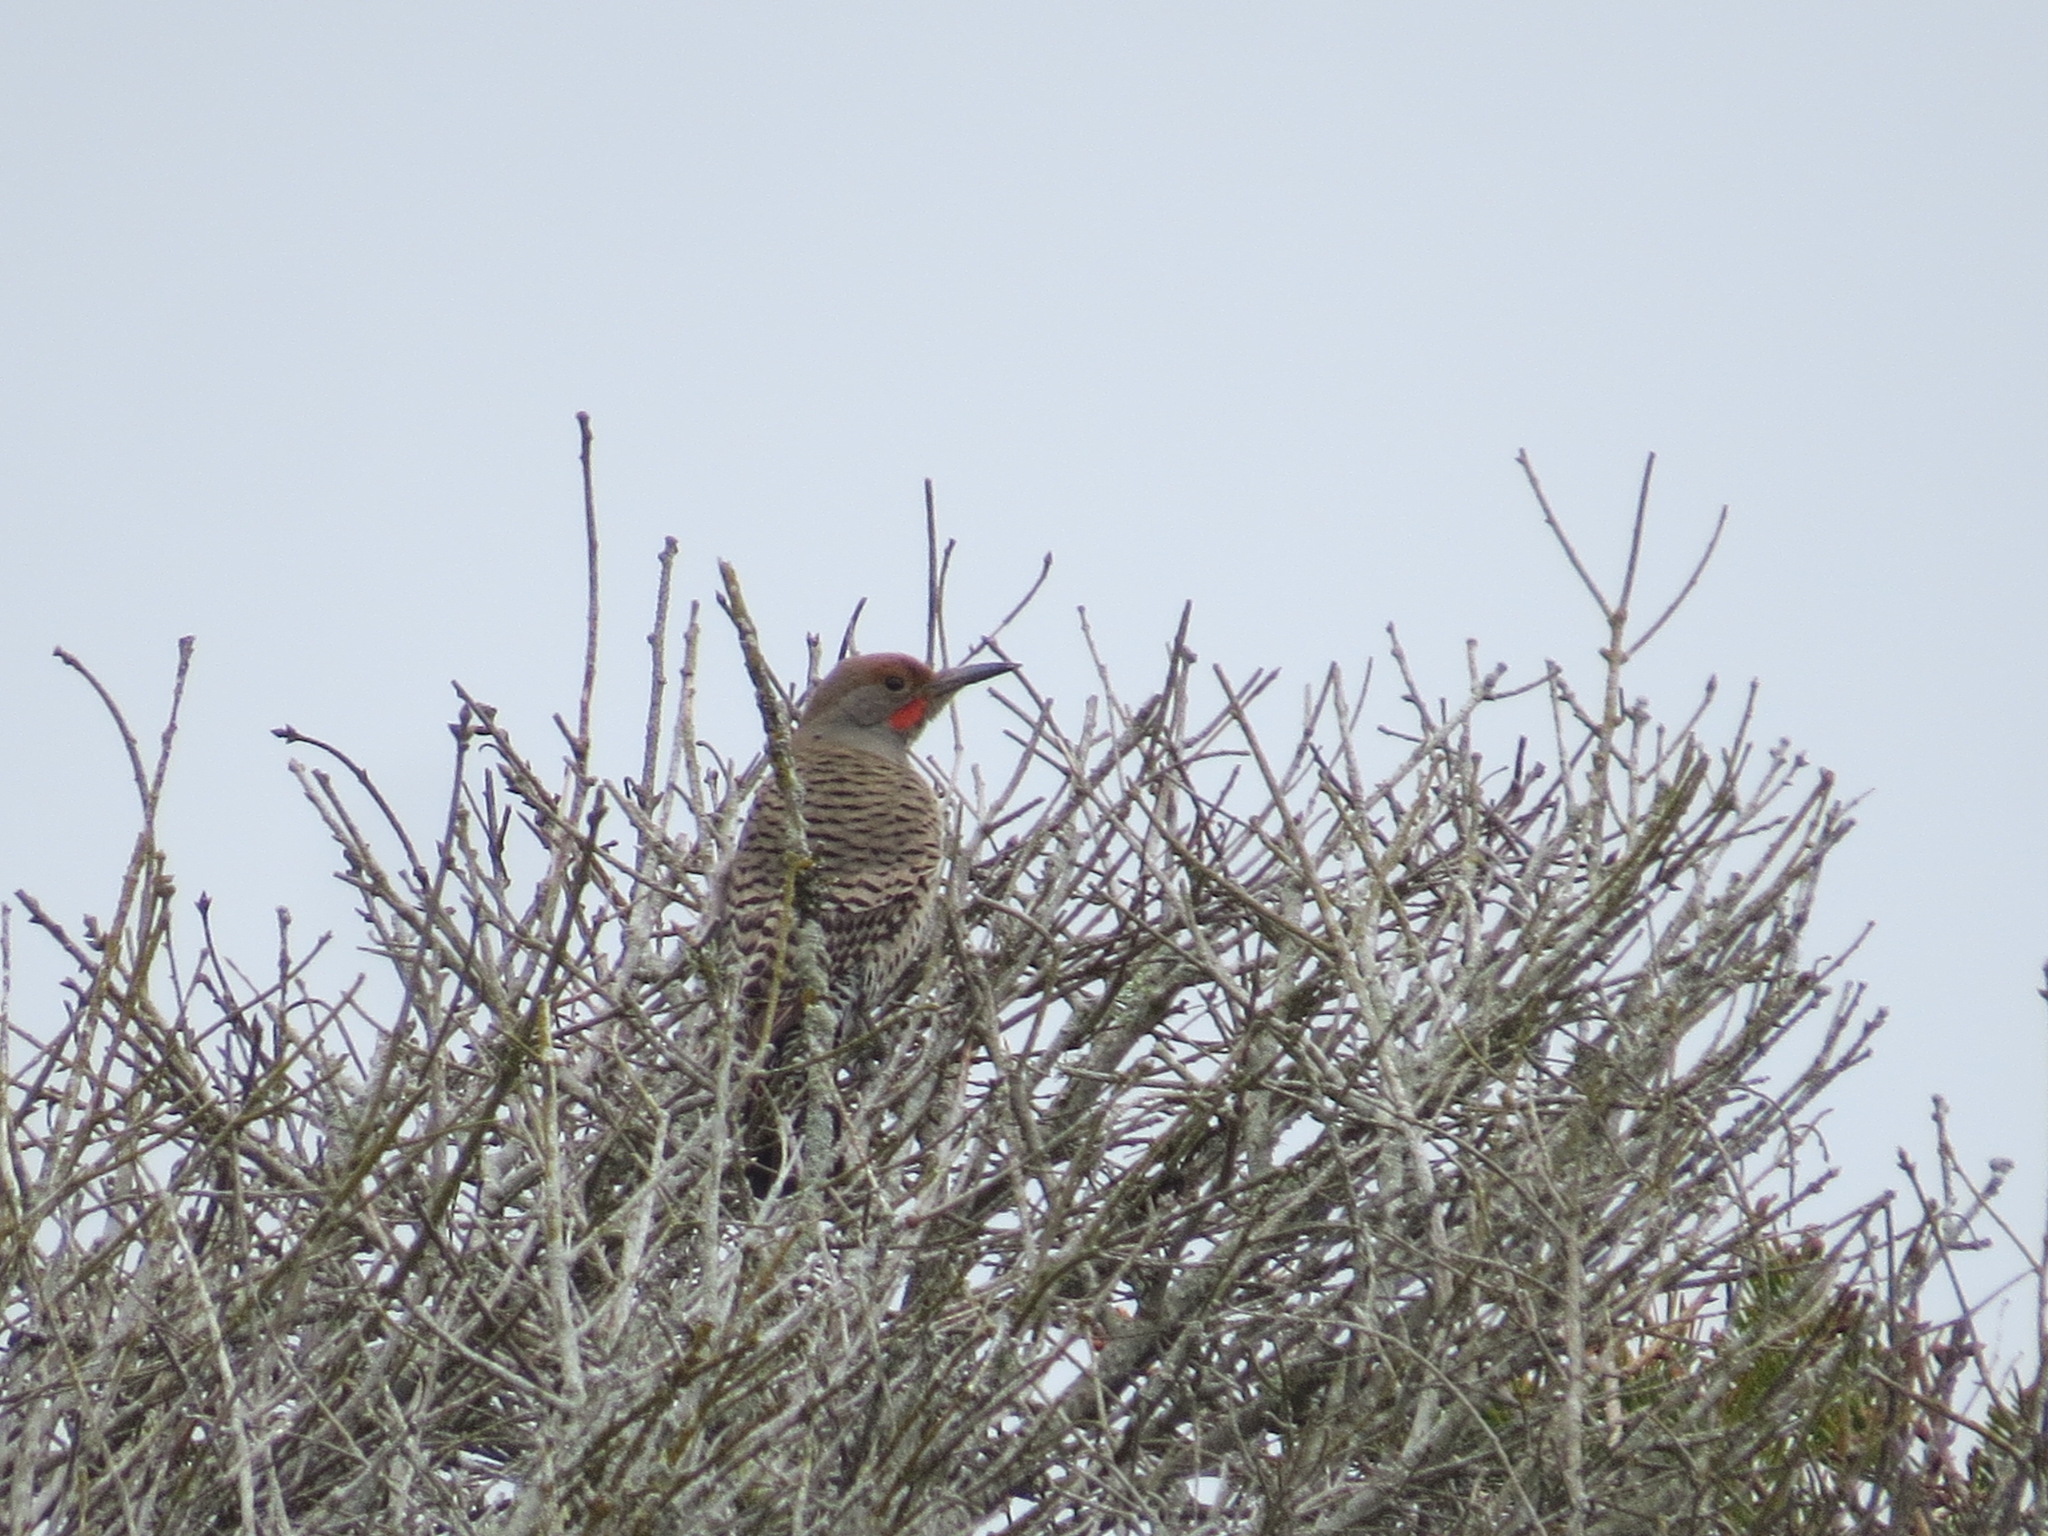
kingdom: Animalia
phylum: Chordata
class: Aves
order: Piciformes
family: Picidae
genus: Colaptes
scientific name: Colaptes auratus
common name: Northern flicker
